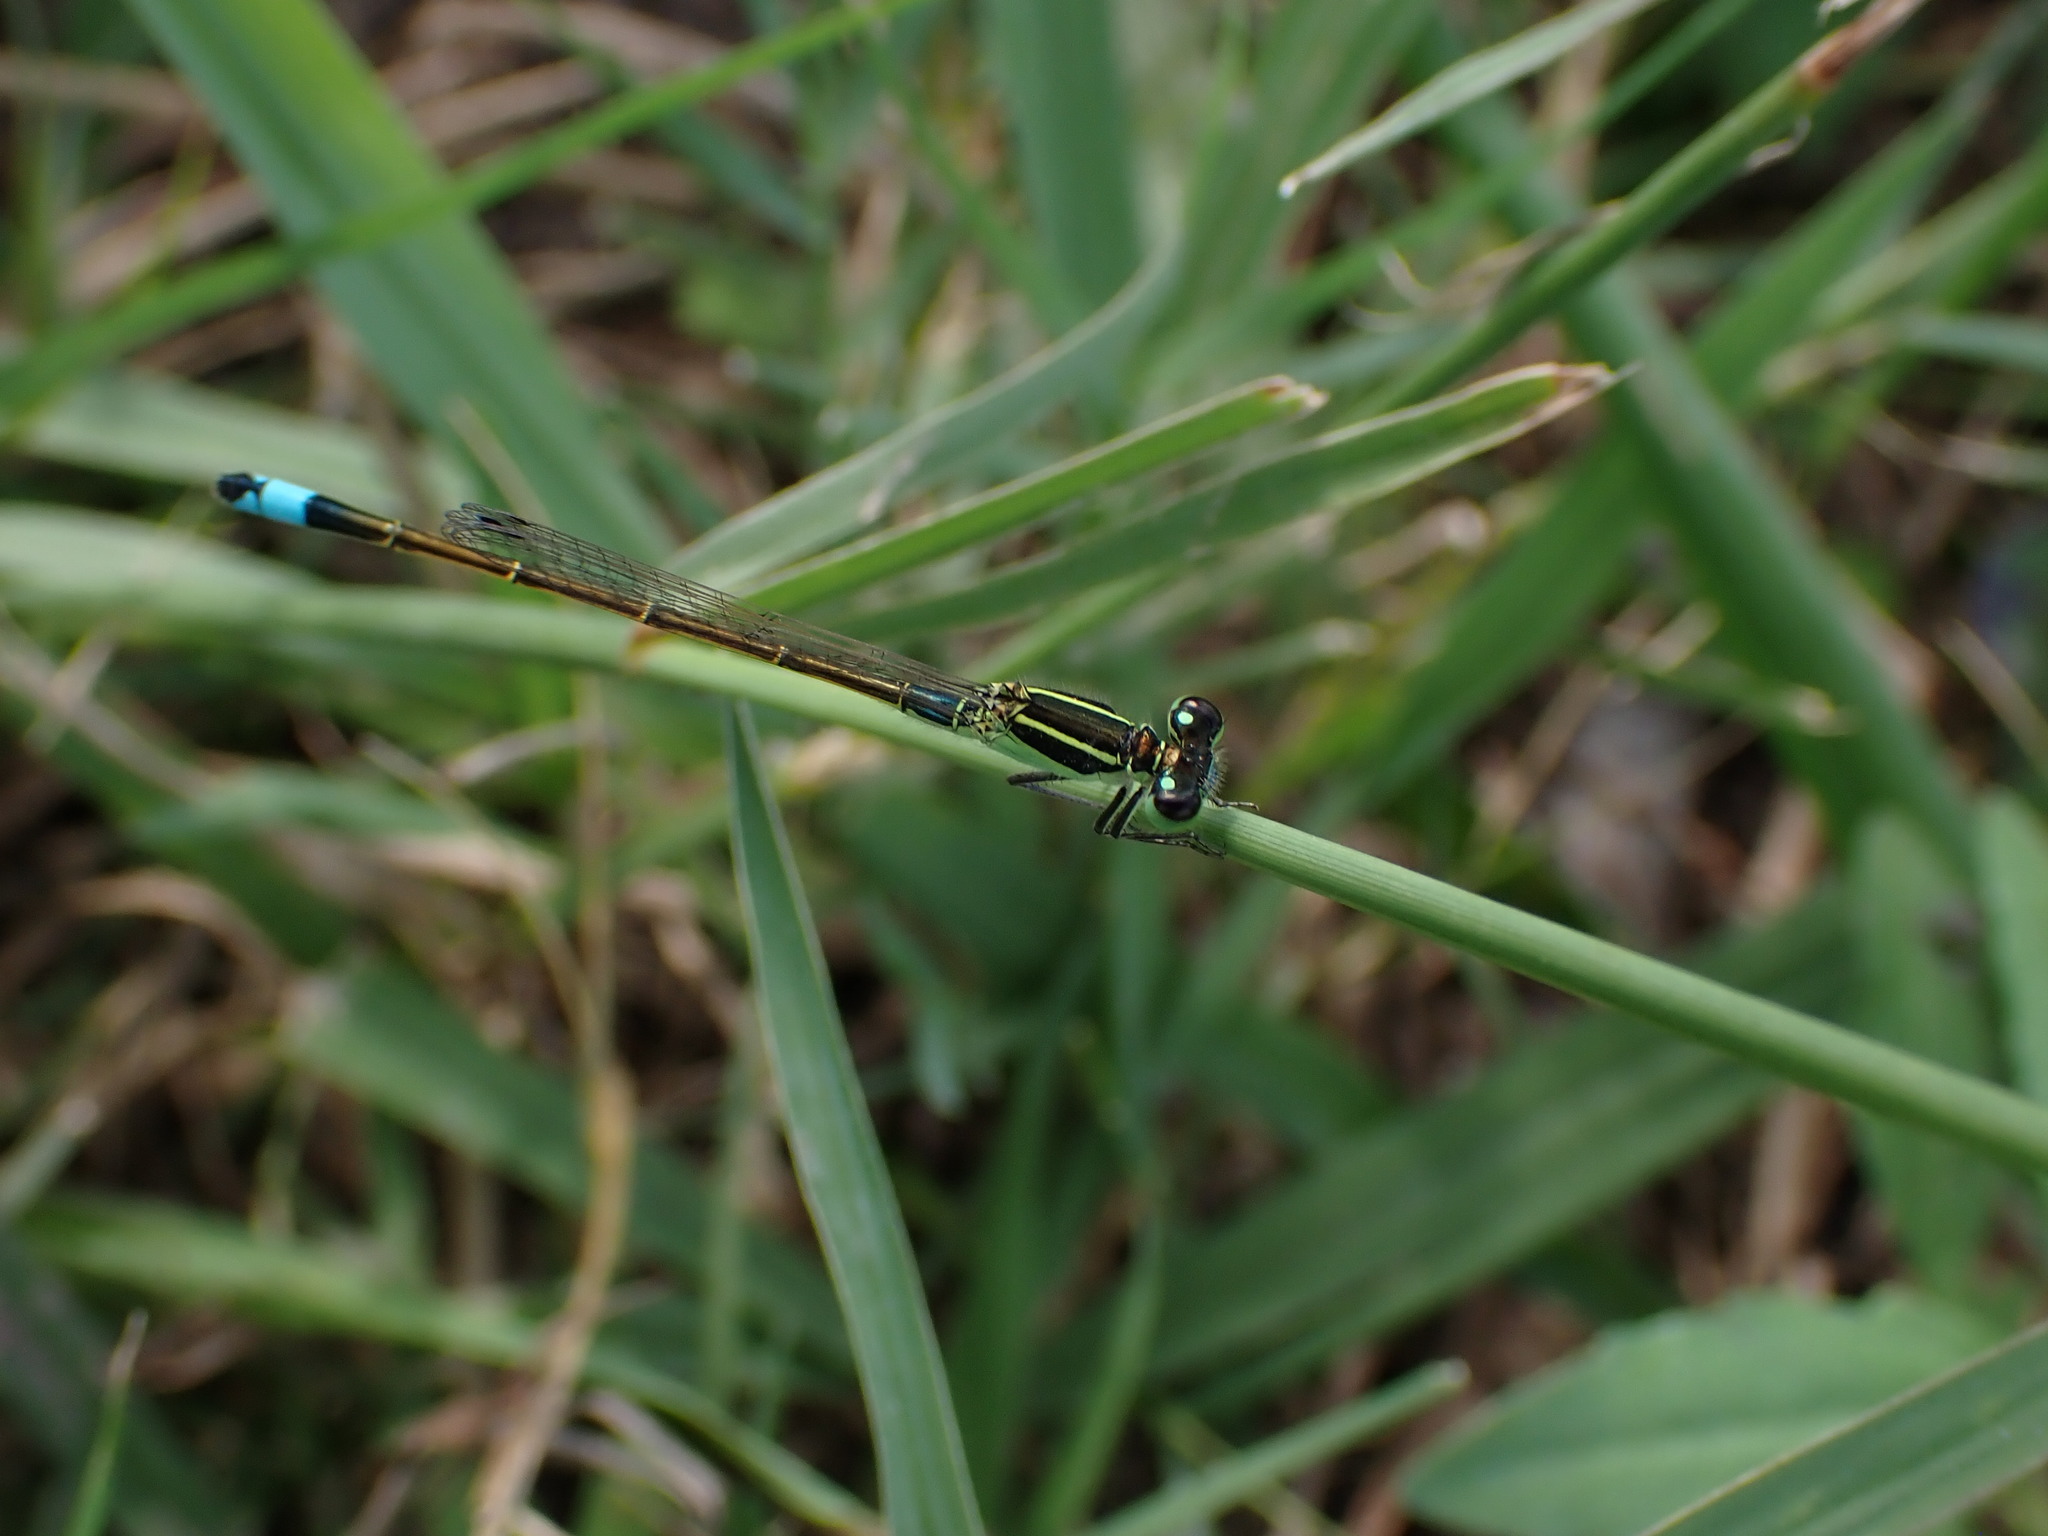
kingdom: Animalia
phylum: Arthropoda
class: Insecta
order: Odonata
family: Coenagrionidae
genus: Ischnura
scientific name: Ischnura ramburii
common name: Rambur's forktail
